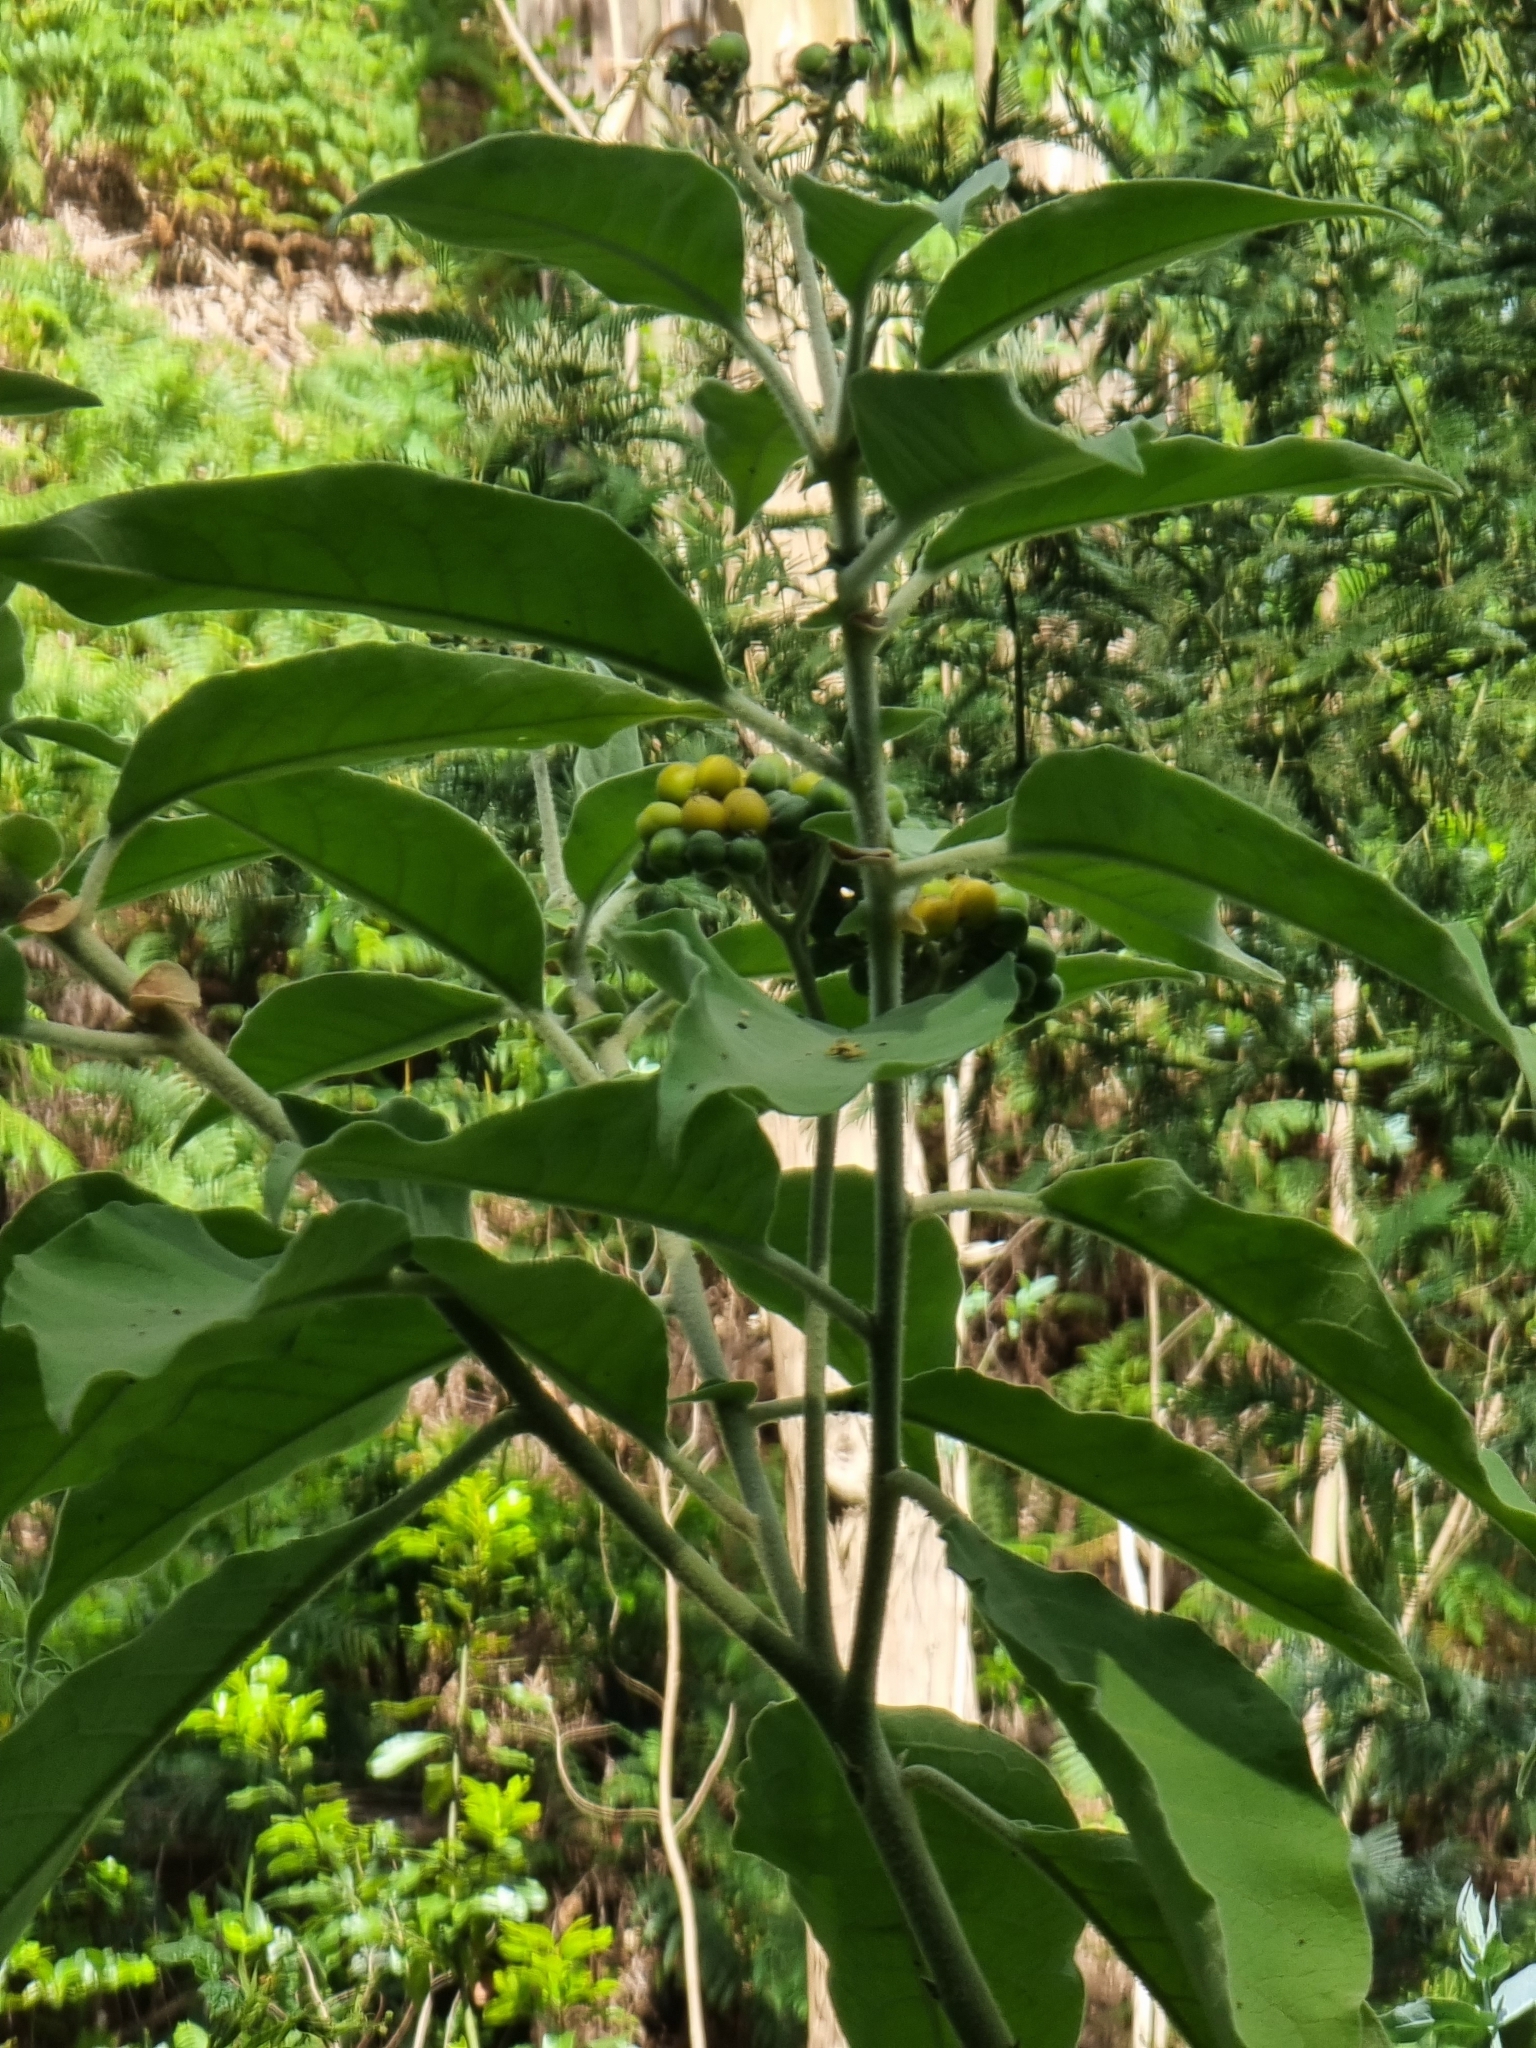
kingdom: Plantae
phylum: Tracheophyta
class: Magnoliopsida
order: Solanales
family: Solanaceae
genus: Solanum
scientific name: Solanum mauritianum
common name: Earleaf nightshade
